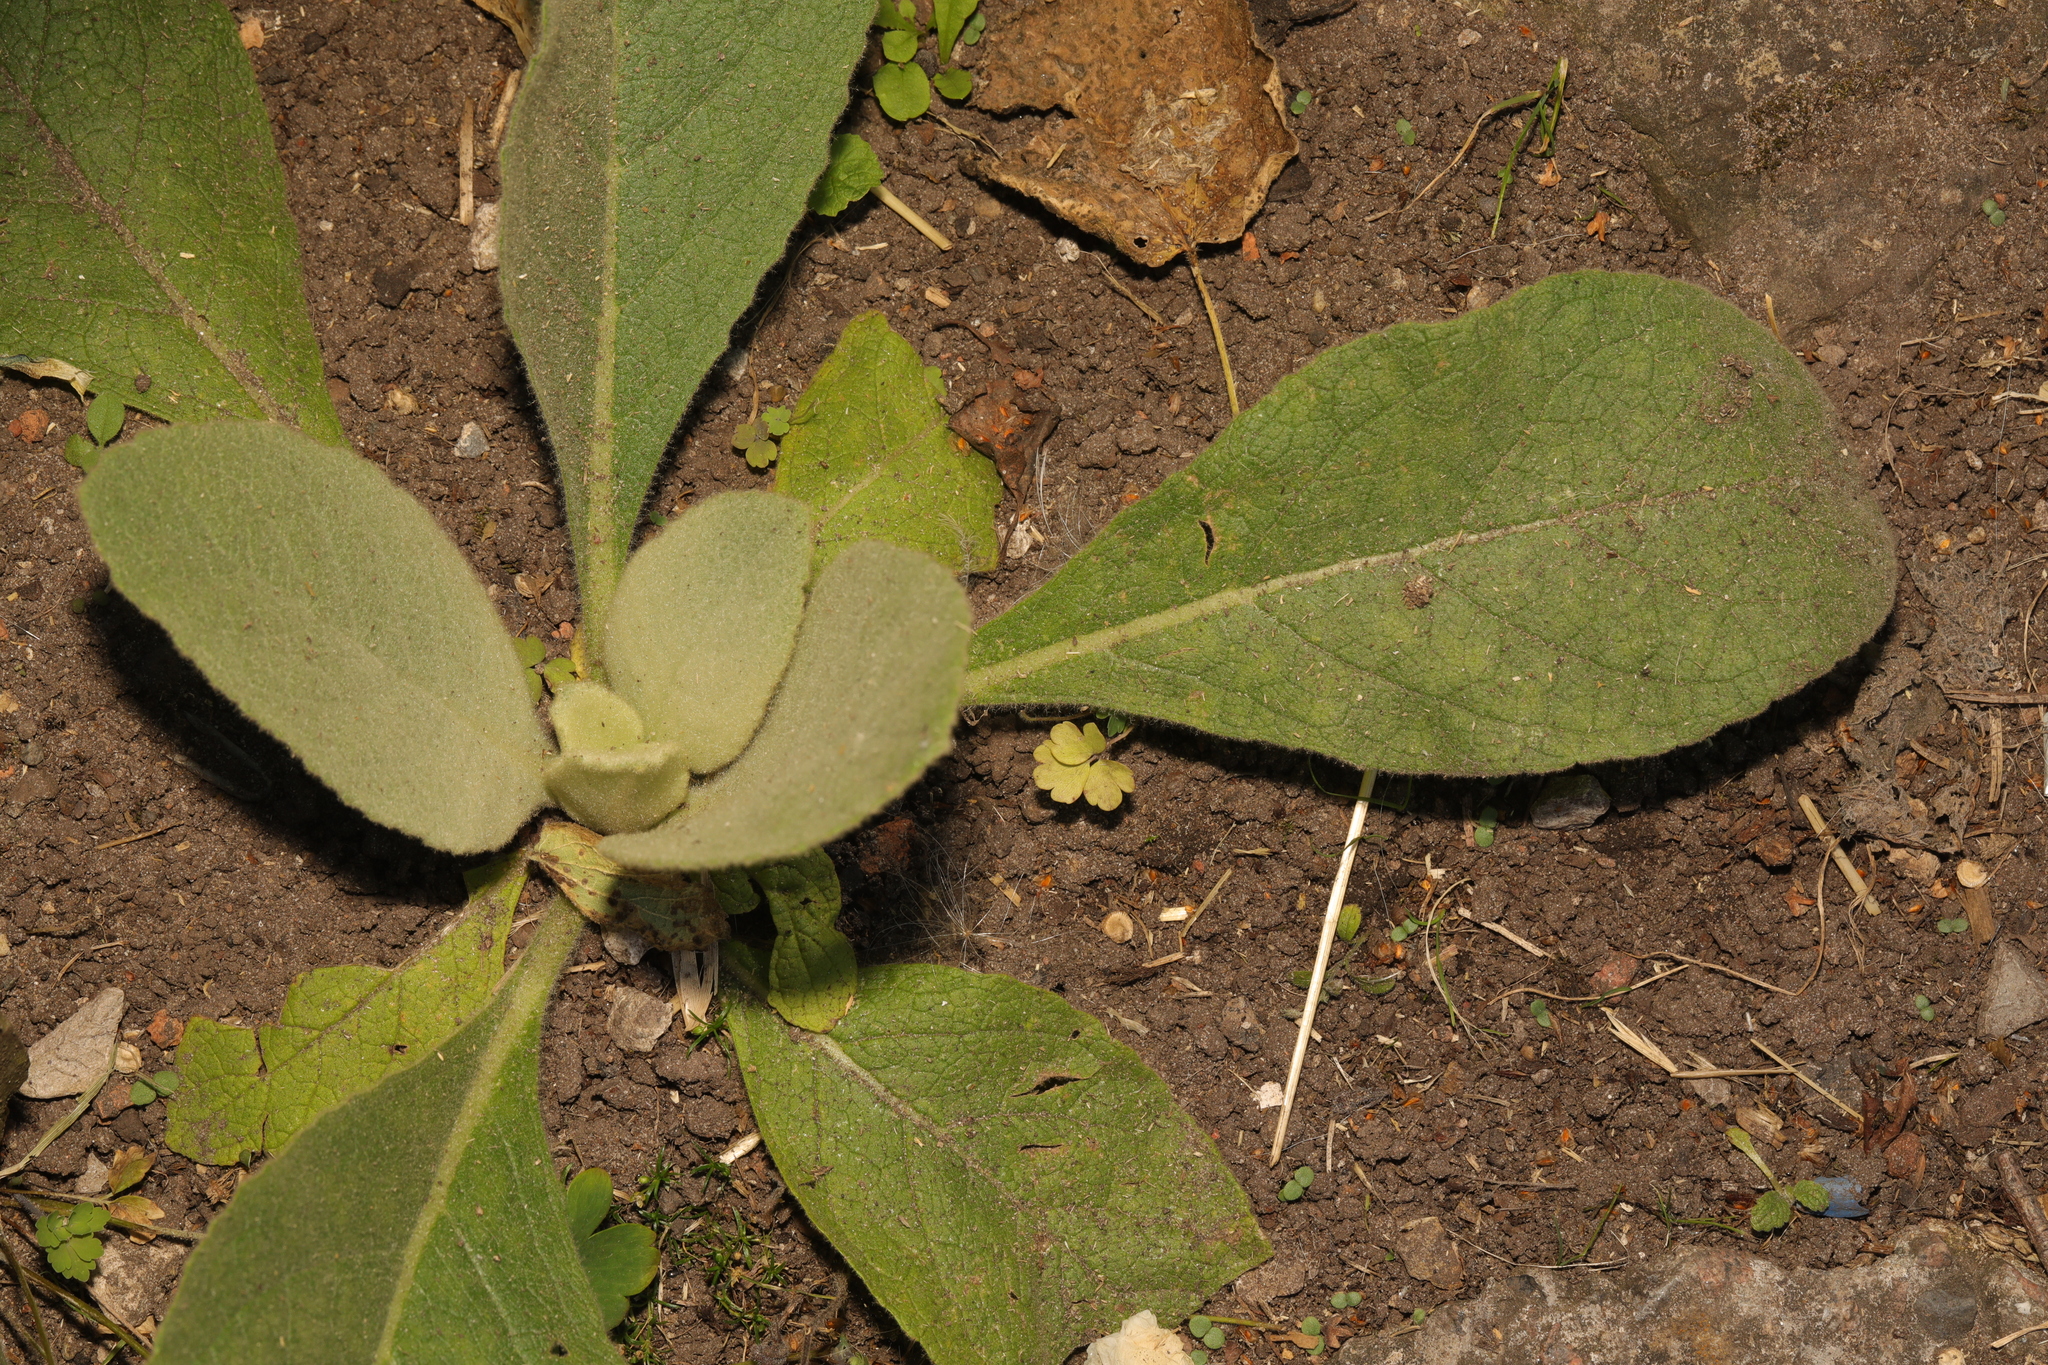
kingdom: Plantae
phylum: Tracheophyta
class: Magnoliopsida
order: Lamiales
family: Scrophulariaceae
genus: Verbascum
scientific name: Verbascum thapsus
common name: Common mullein
